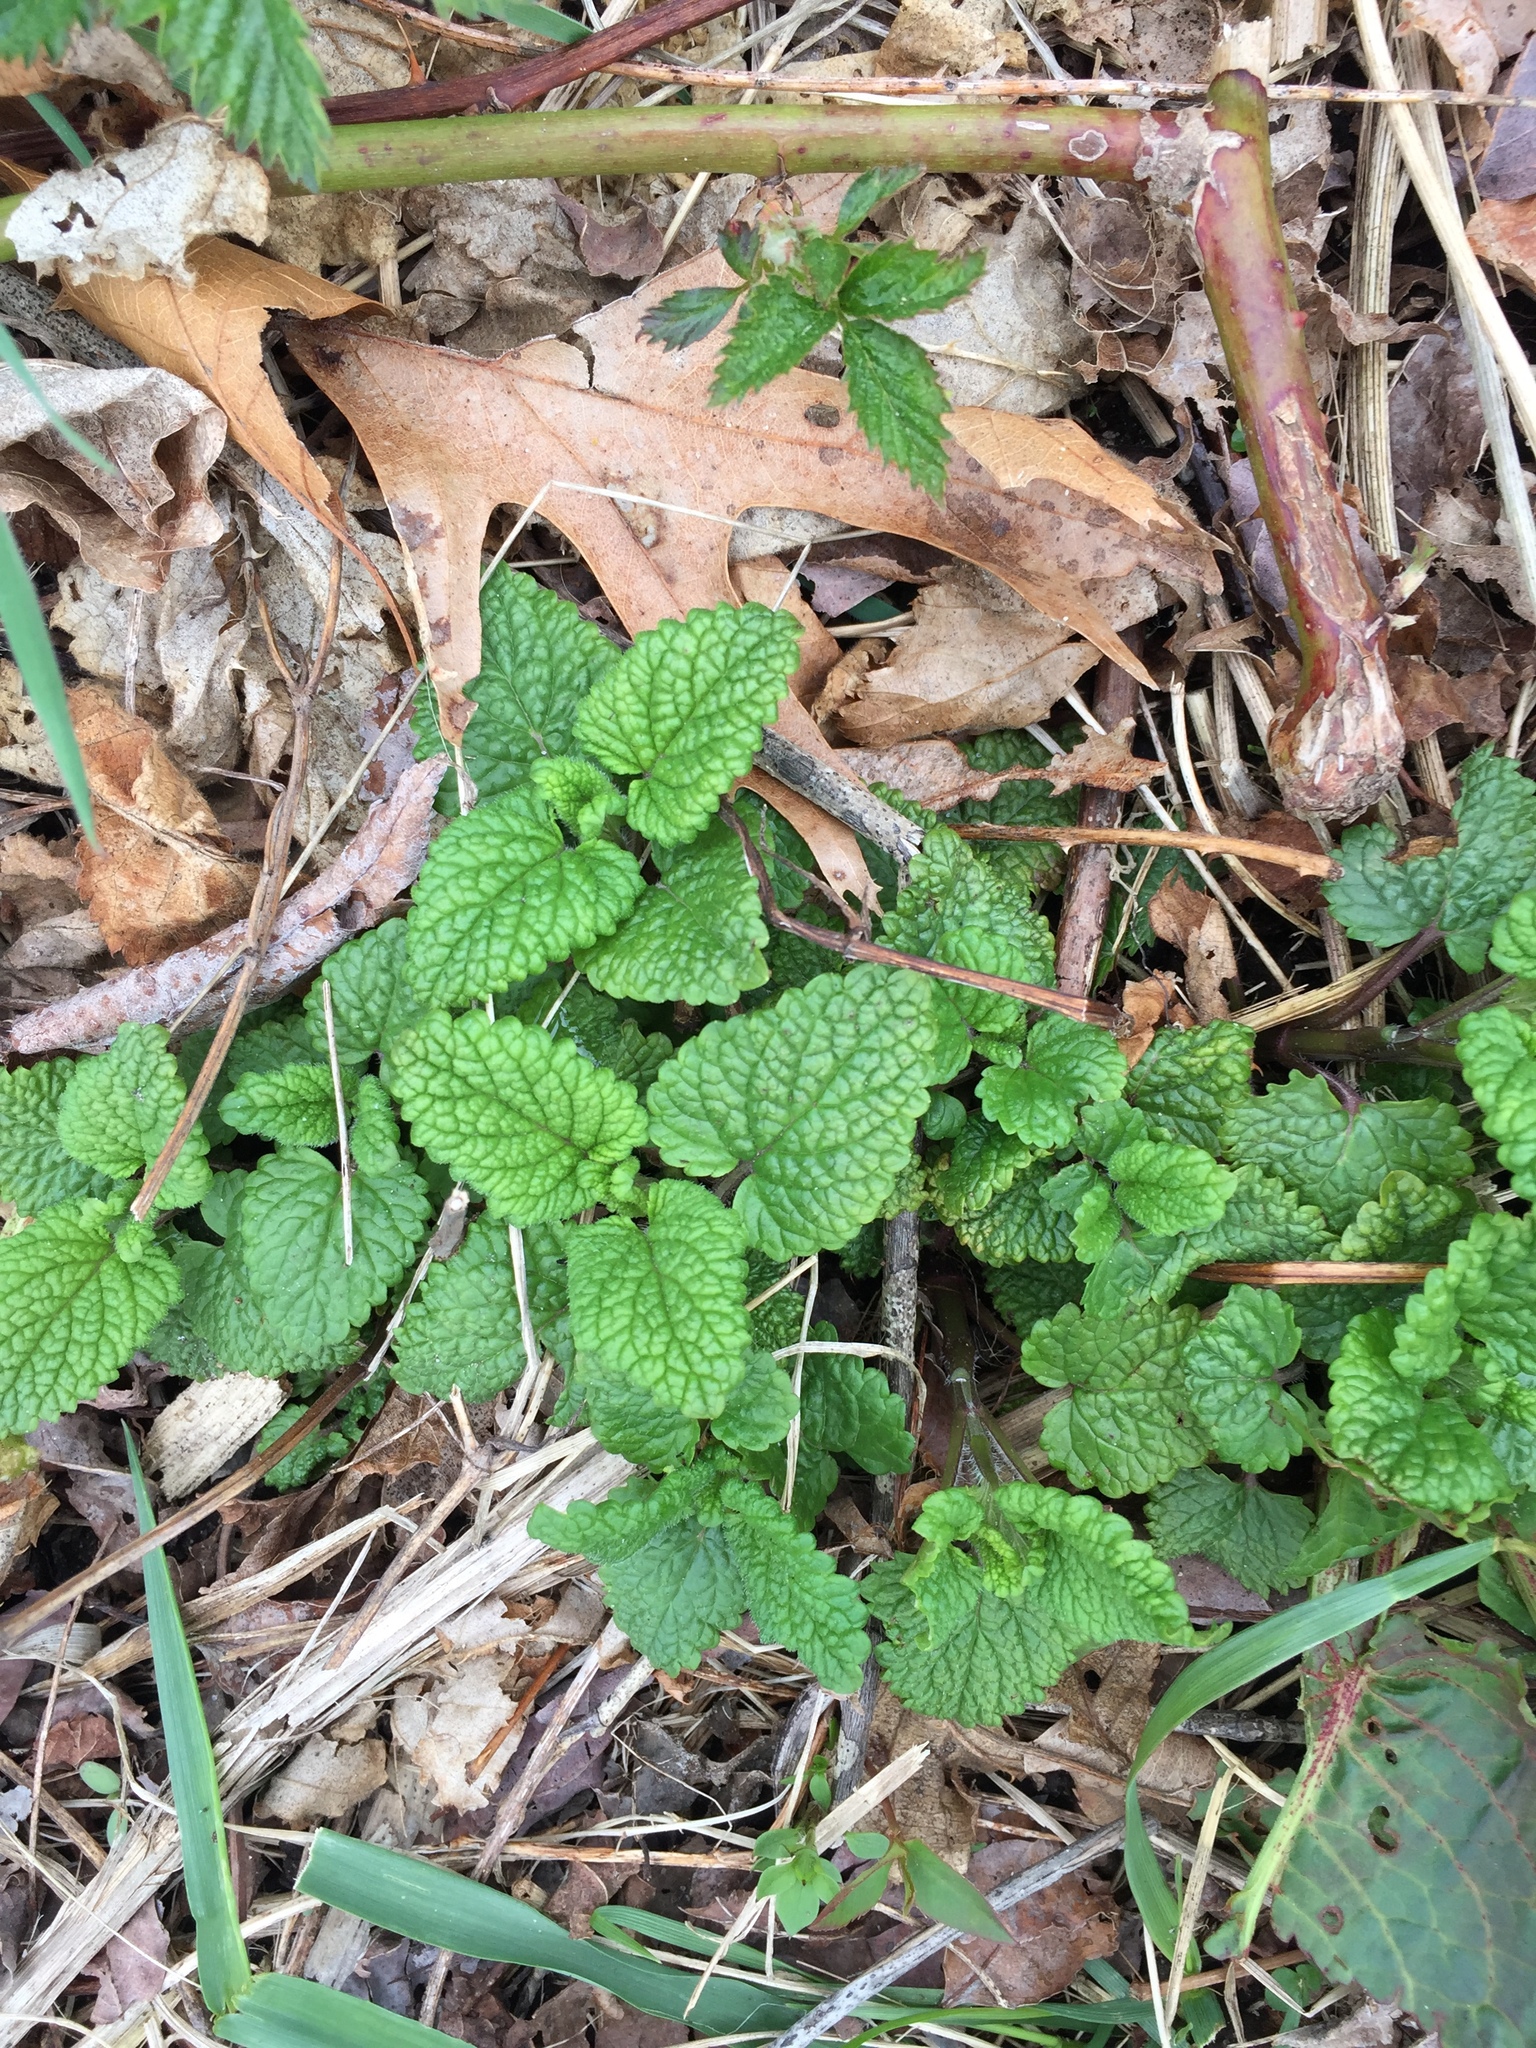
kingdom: Plantae
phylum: Tracheophyta
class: Magnoliopsida
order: Lamiales
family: Lamiaceae
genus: Melissa
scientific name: Melissa officinalis
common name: Balm
